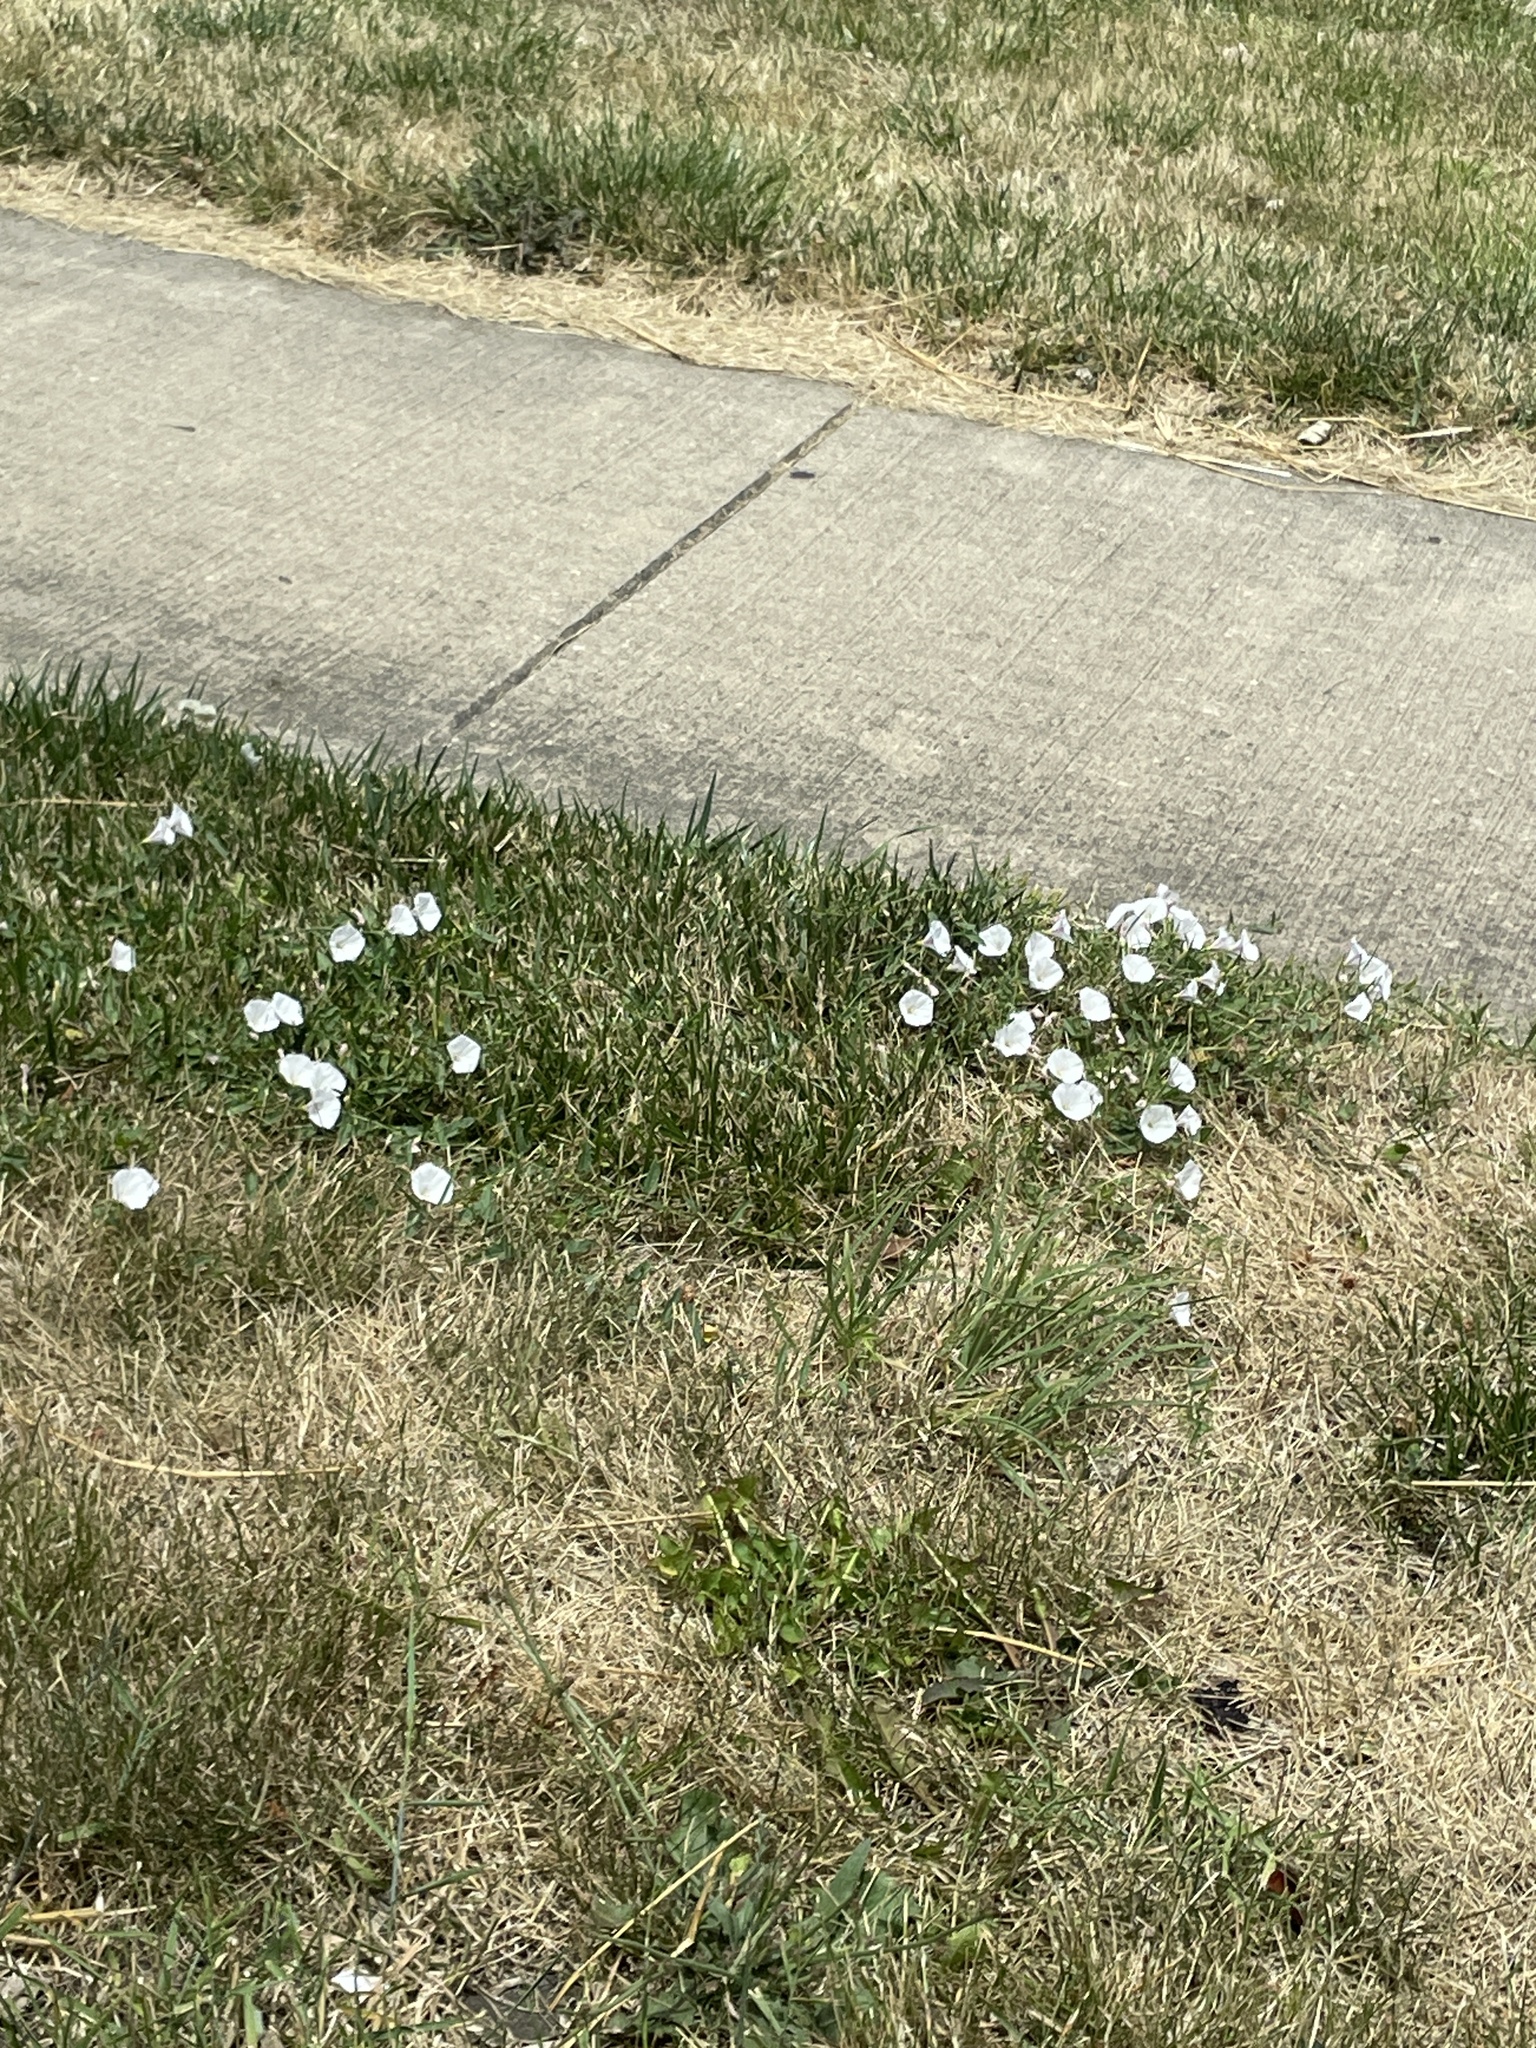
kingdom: Plantae
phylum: Tracheophyta
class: Magnoliopsida
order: Solanales
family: Convolvulaceae
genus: Convolvulus
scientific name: Convolvulus arvensis
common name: Field bindweed
